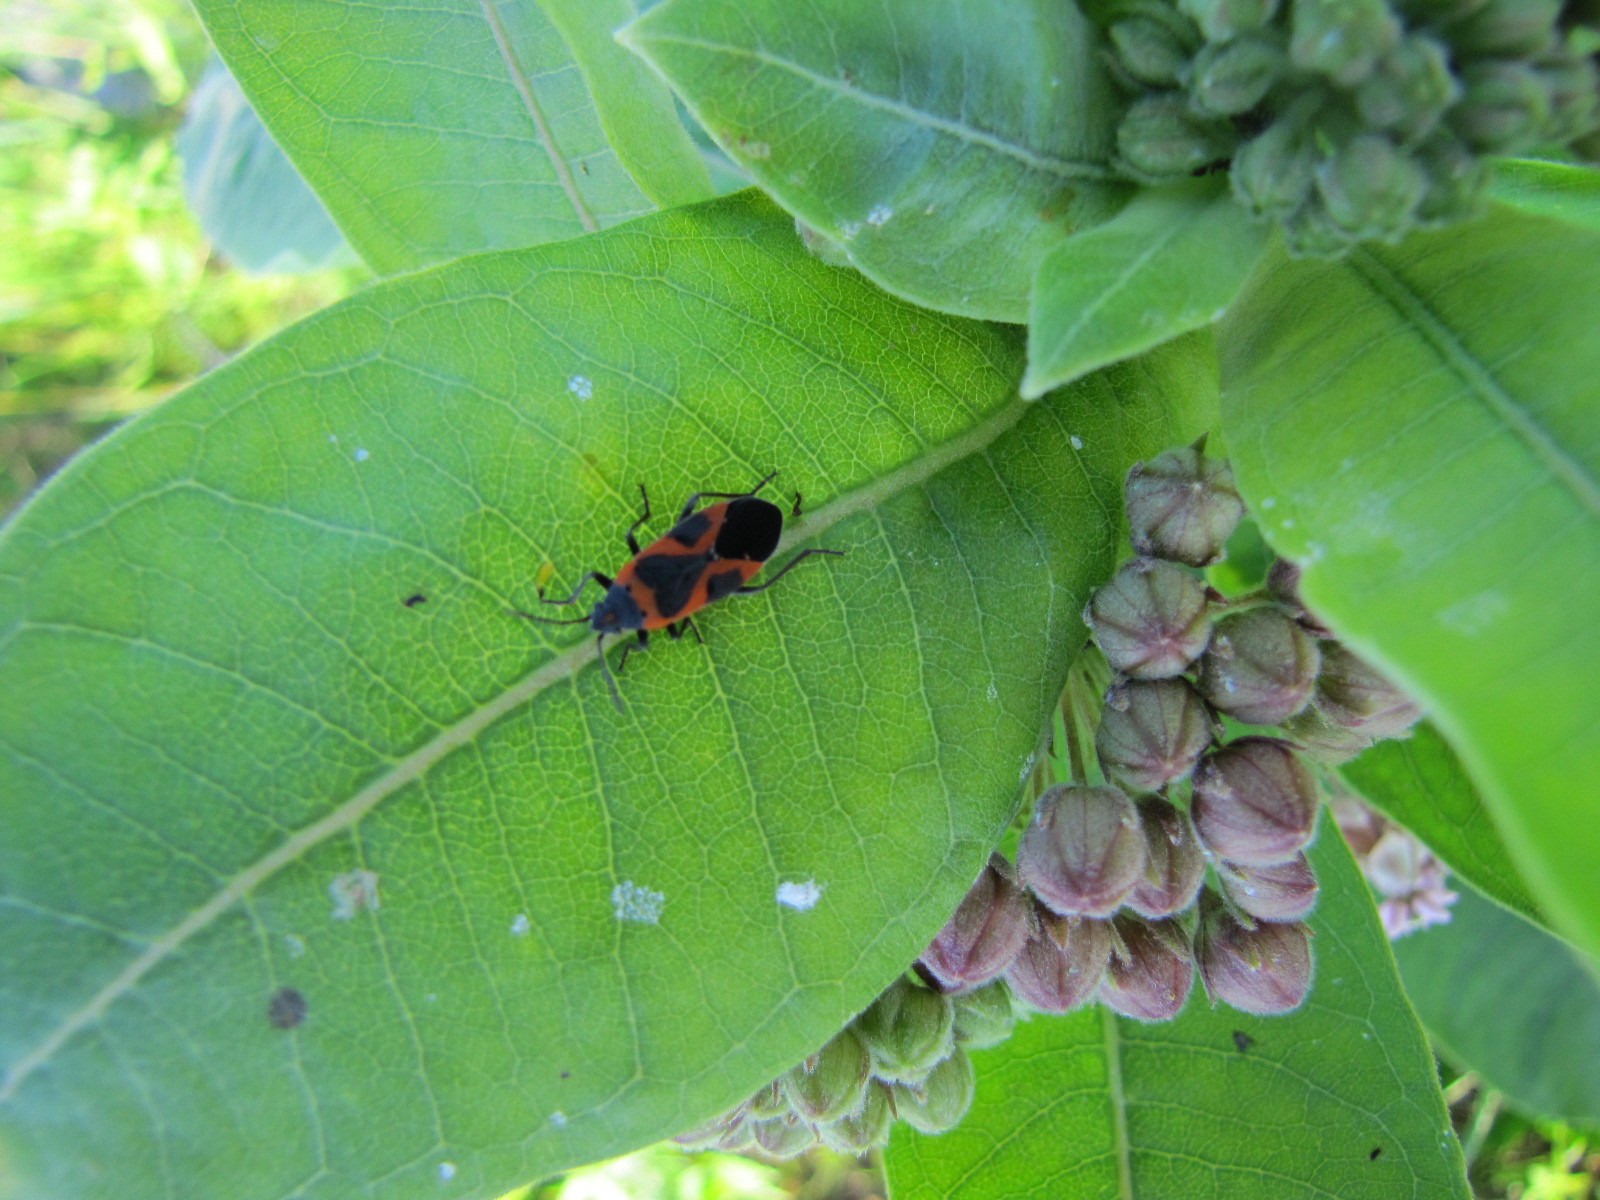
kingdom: Animalia
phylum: Arthropoda
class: Insecta
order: Hemiptera
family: Lygaeidae
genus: Lygaeus
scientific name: Lygaeus kalmii
